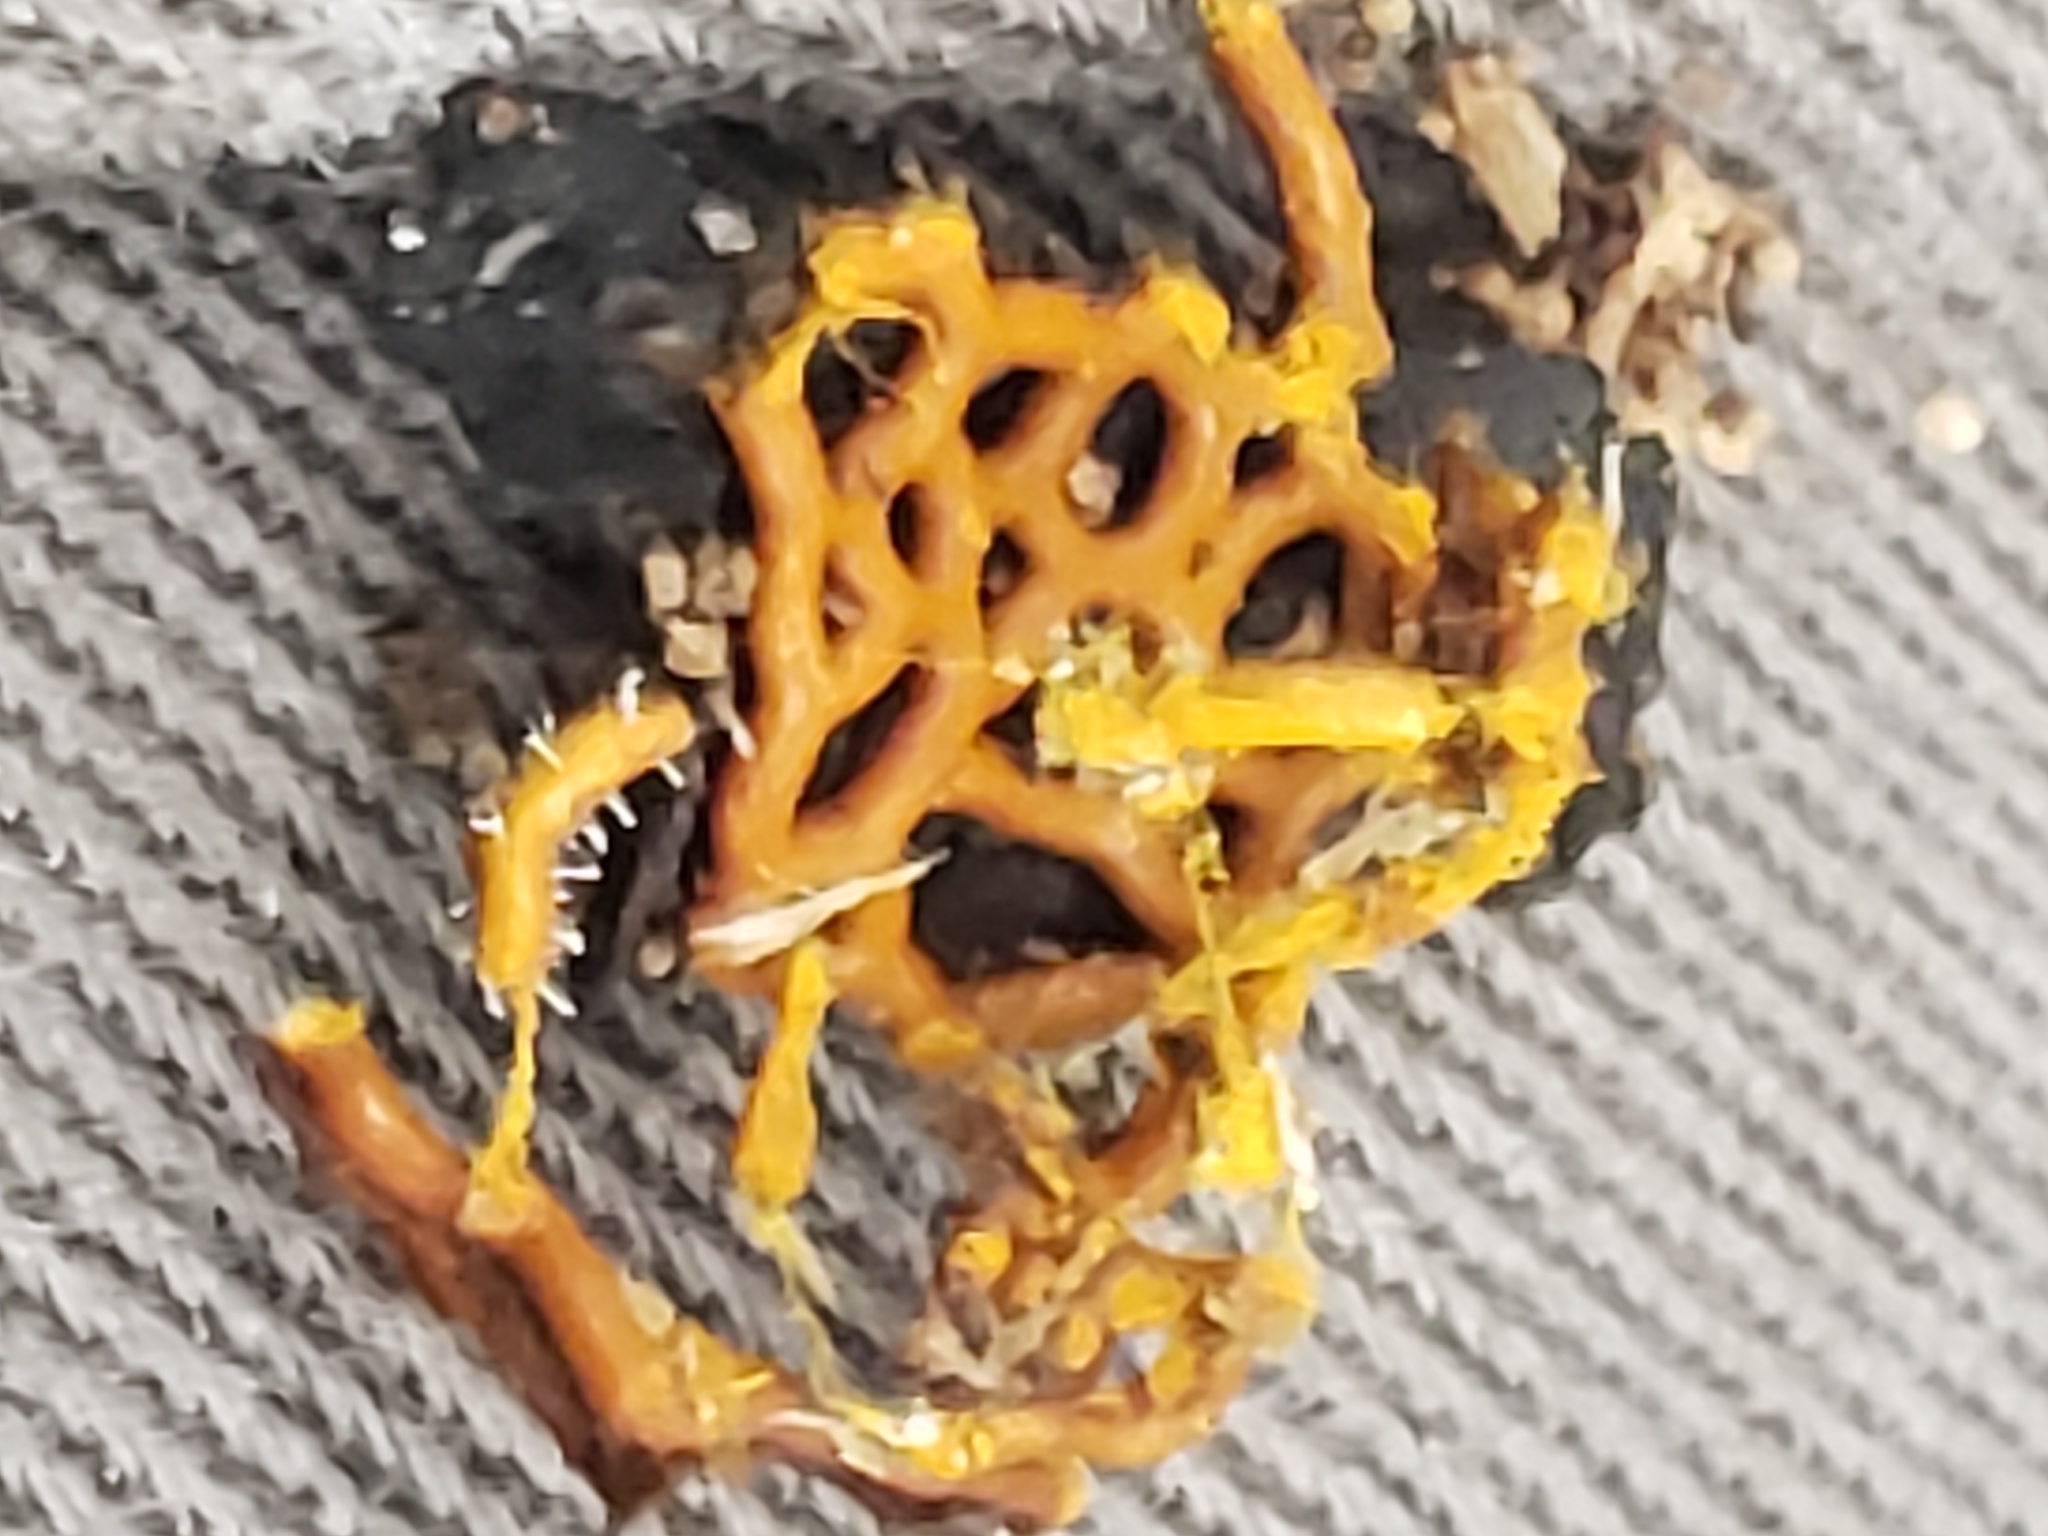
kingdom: Protozoa
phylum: Mycetozoa
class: Myxomycetes
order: Trichiales
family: Arcyriaceae
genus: Hemitrichia
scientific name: Hemitrichia serpula
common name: Pretzel slime mold
